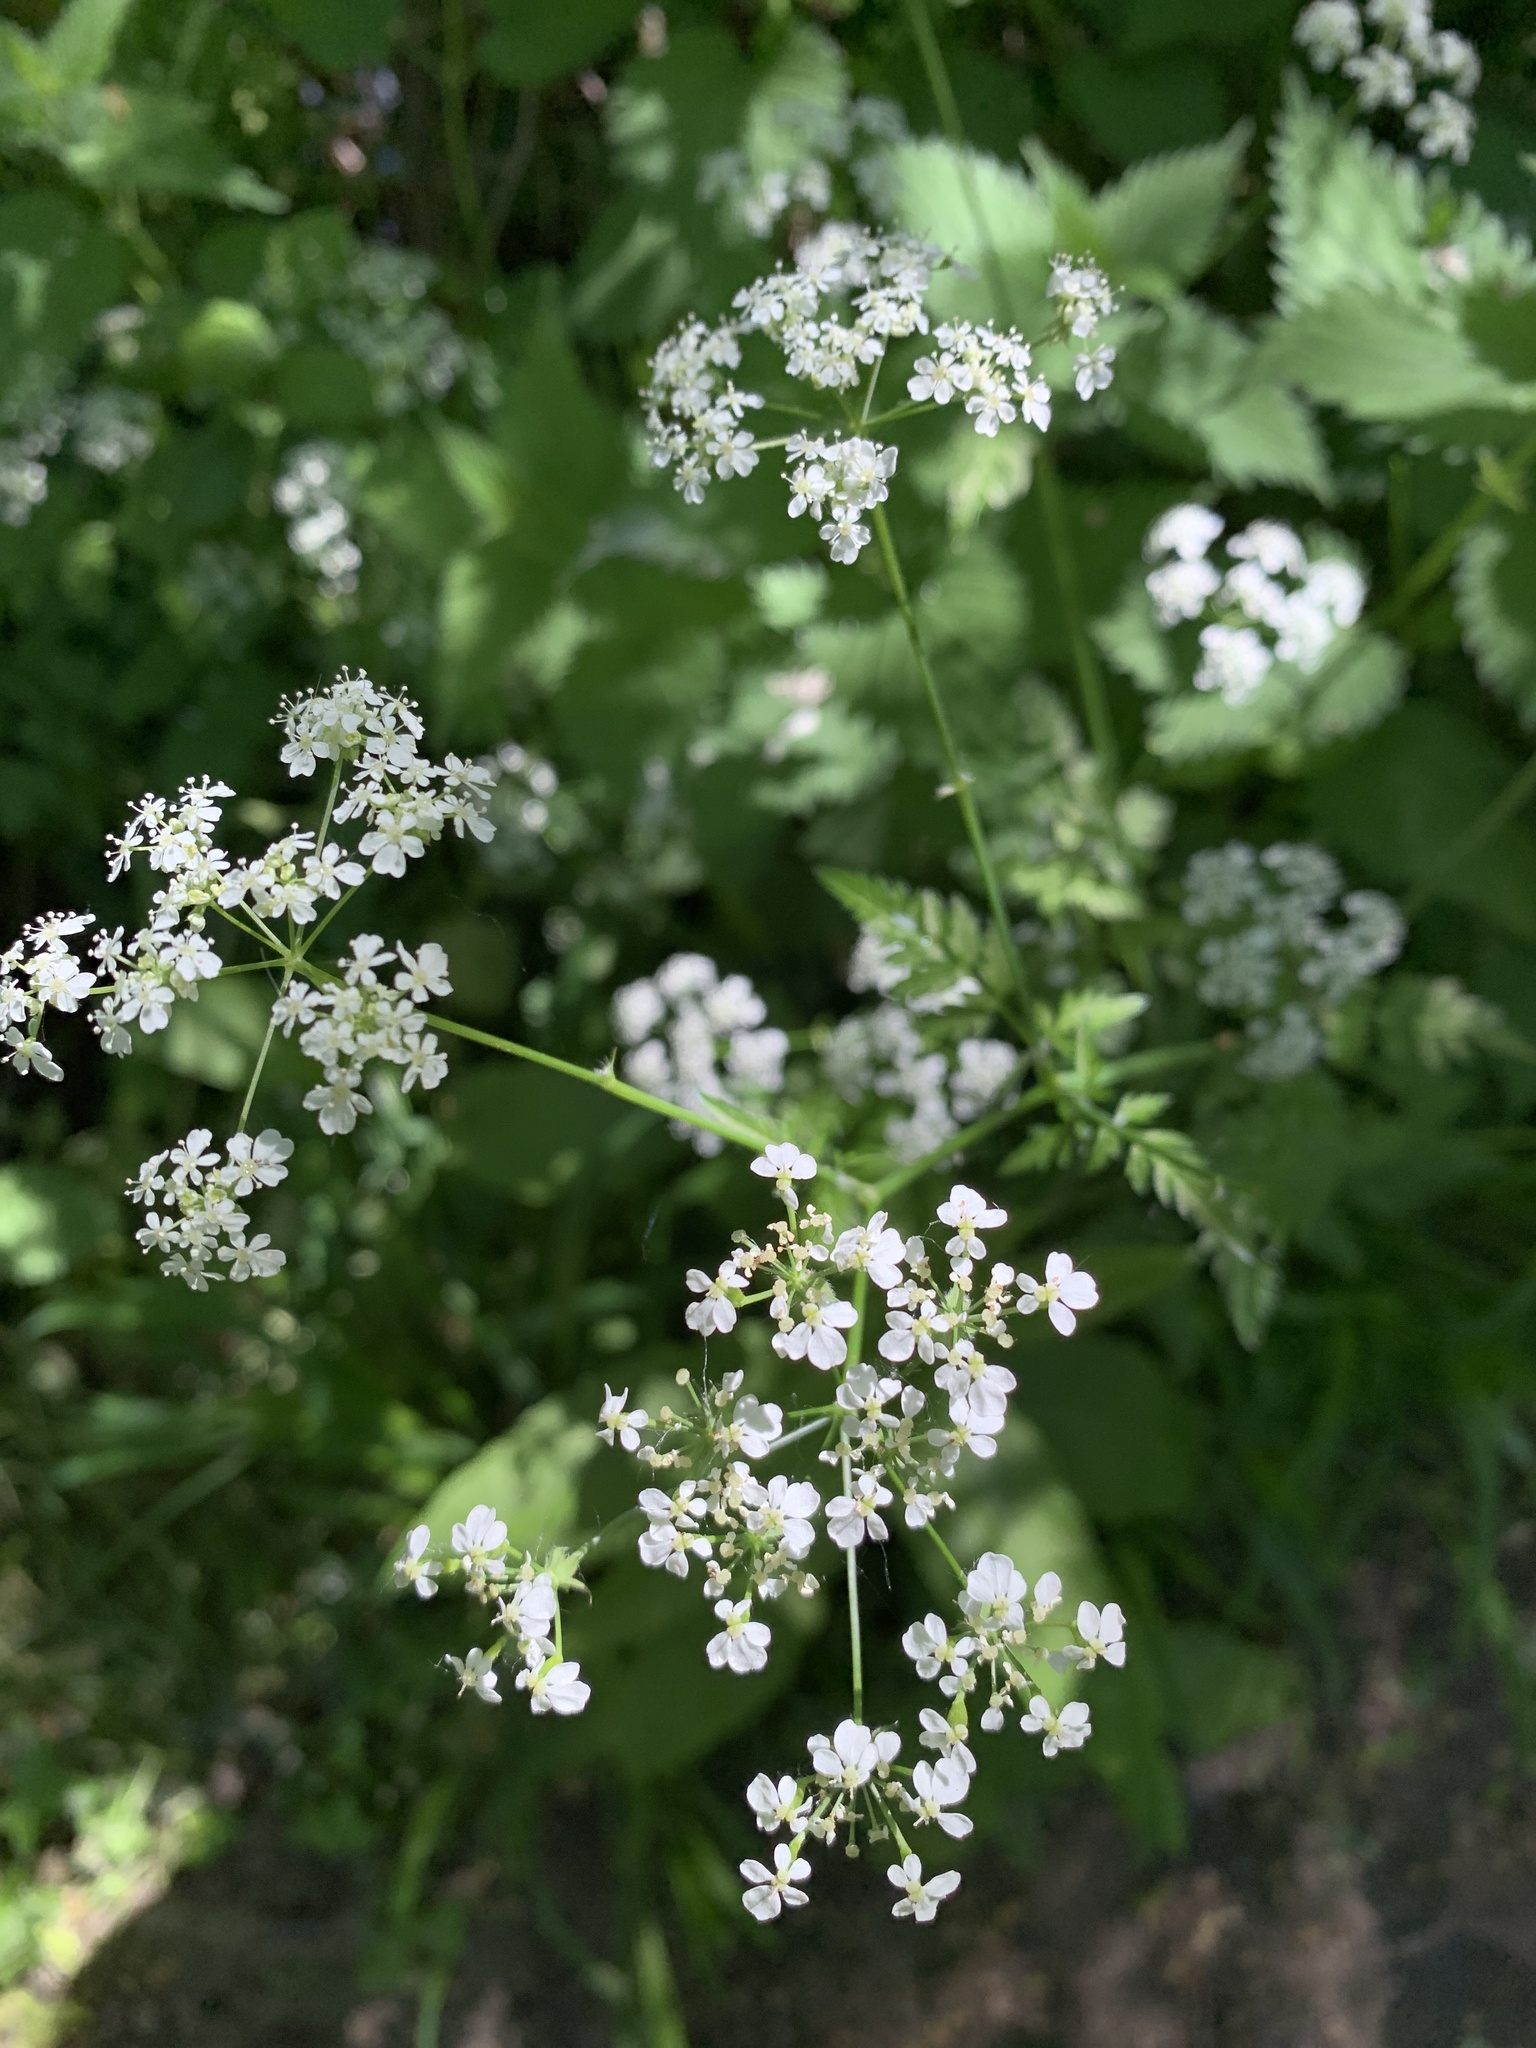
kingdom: Plantae
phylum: Tracheophyta
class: Magnoliopsida
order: Apiales
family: Apiaceae
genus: Anthriscus
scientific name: Anthriscus sylvestris
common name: Cow parsley
